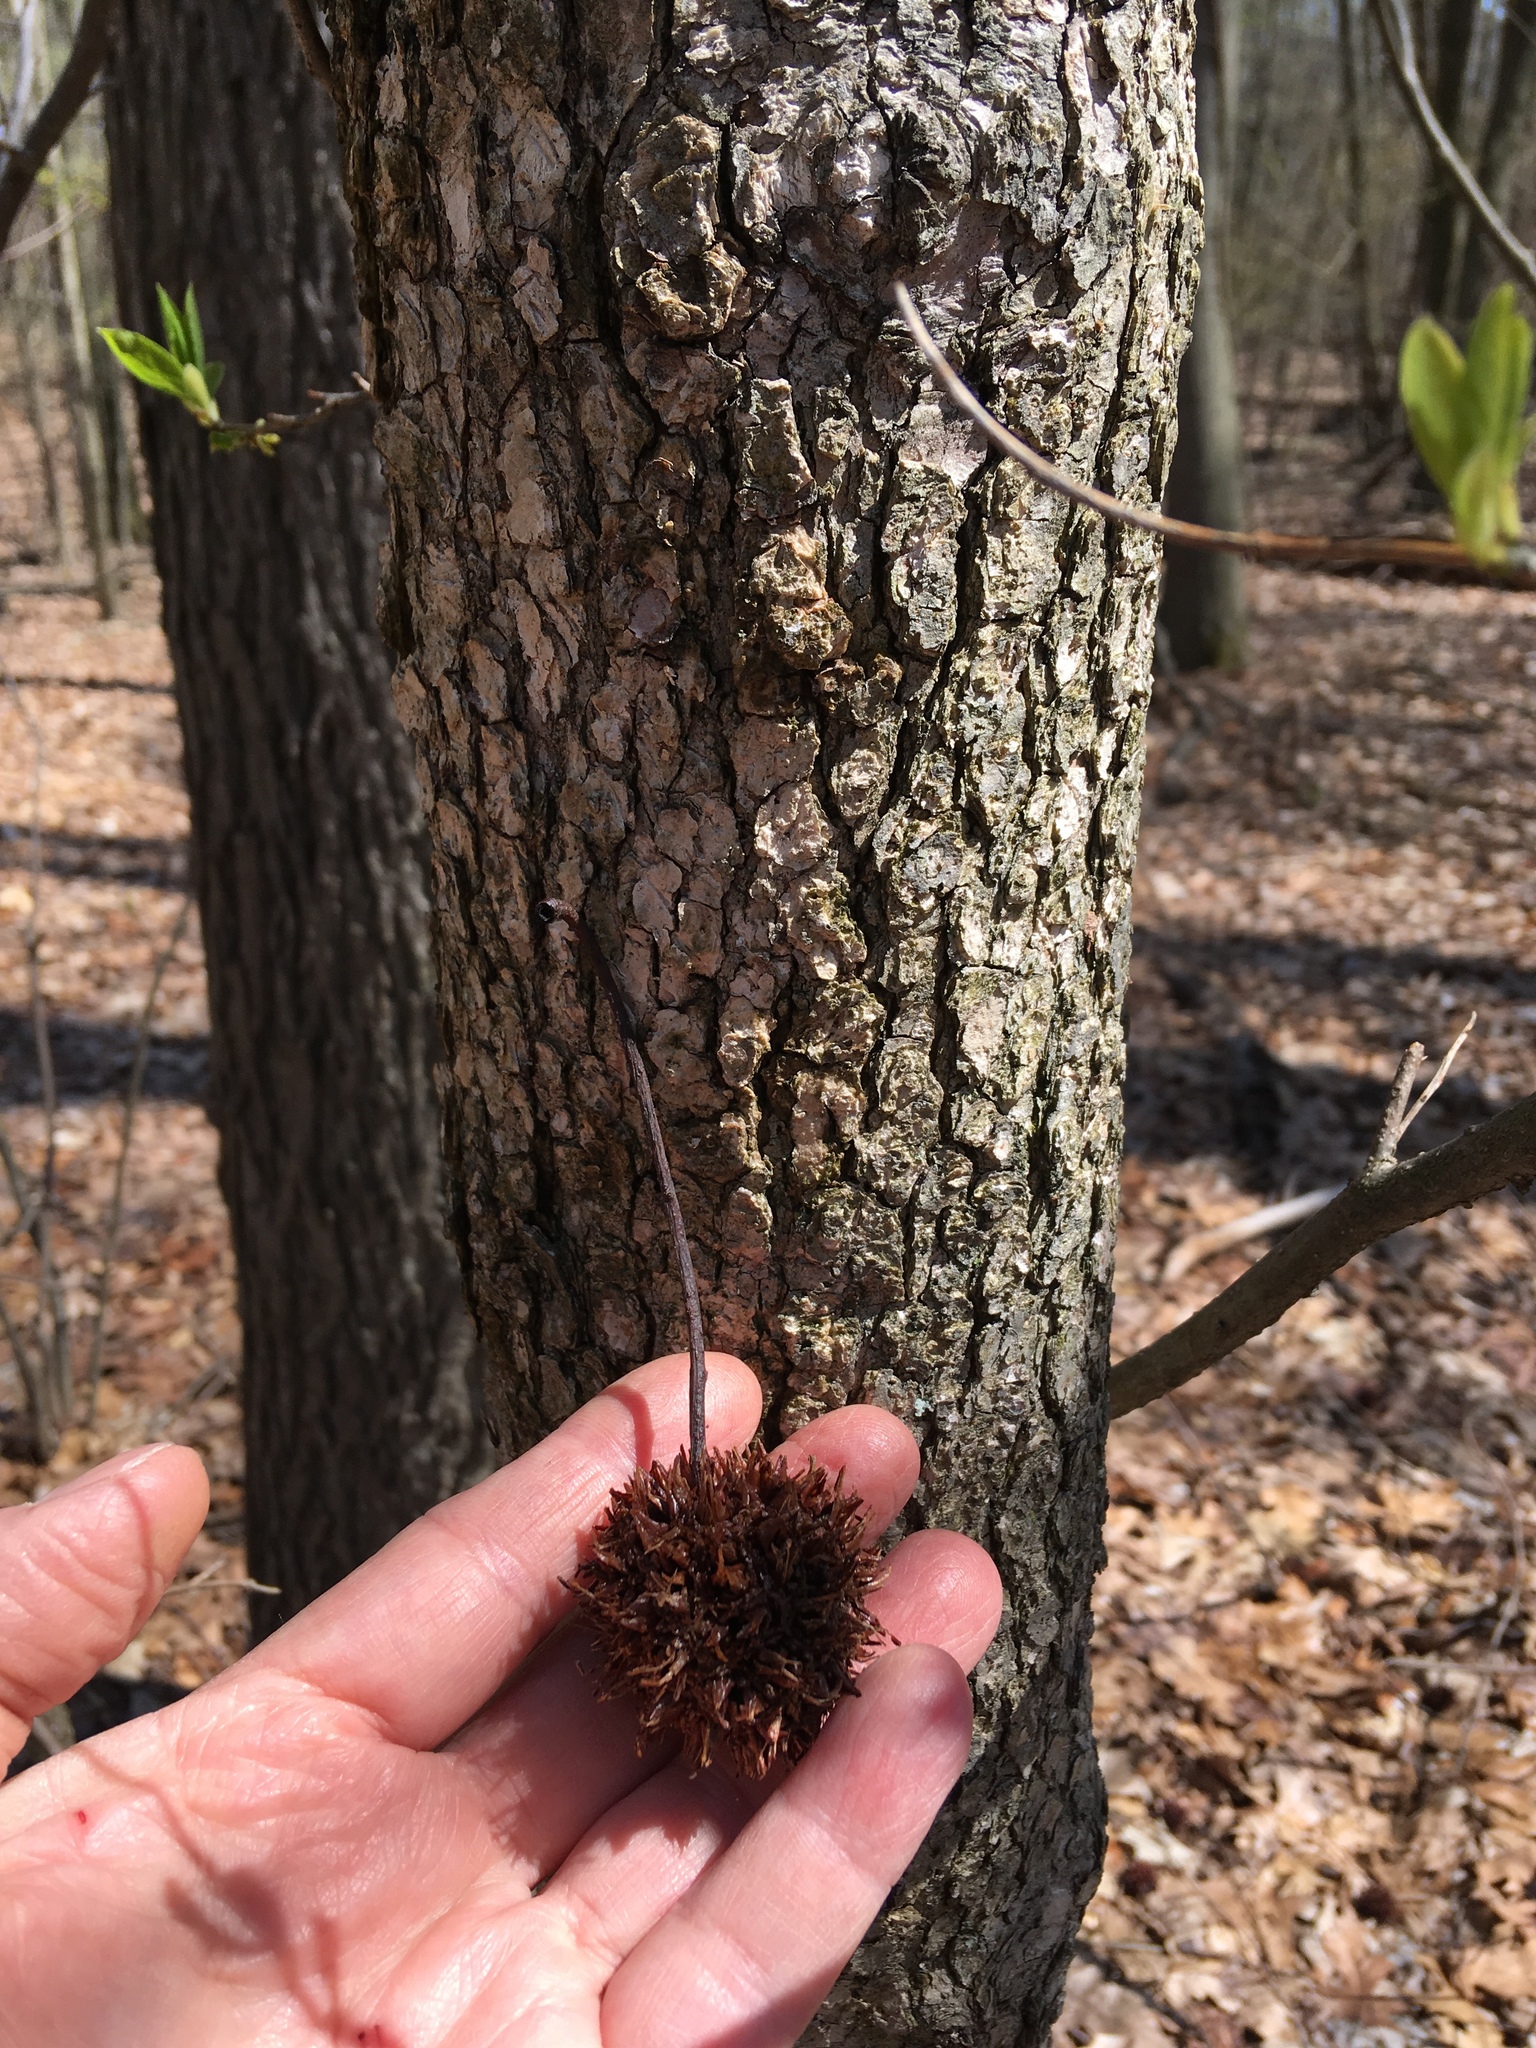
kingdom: Plantae
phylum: Tracheophyta
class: Magnoliopsida
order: Saxifragales
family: Altingiaceae
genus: Liquidambar
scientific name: Liquidambar styraciflua
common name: Sweet gum
